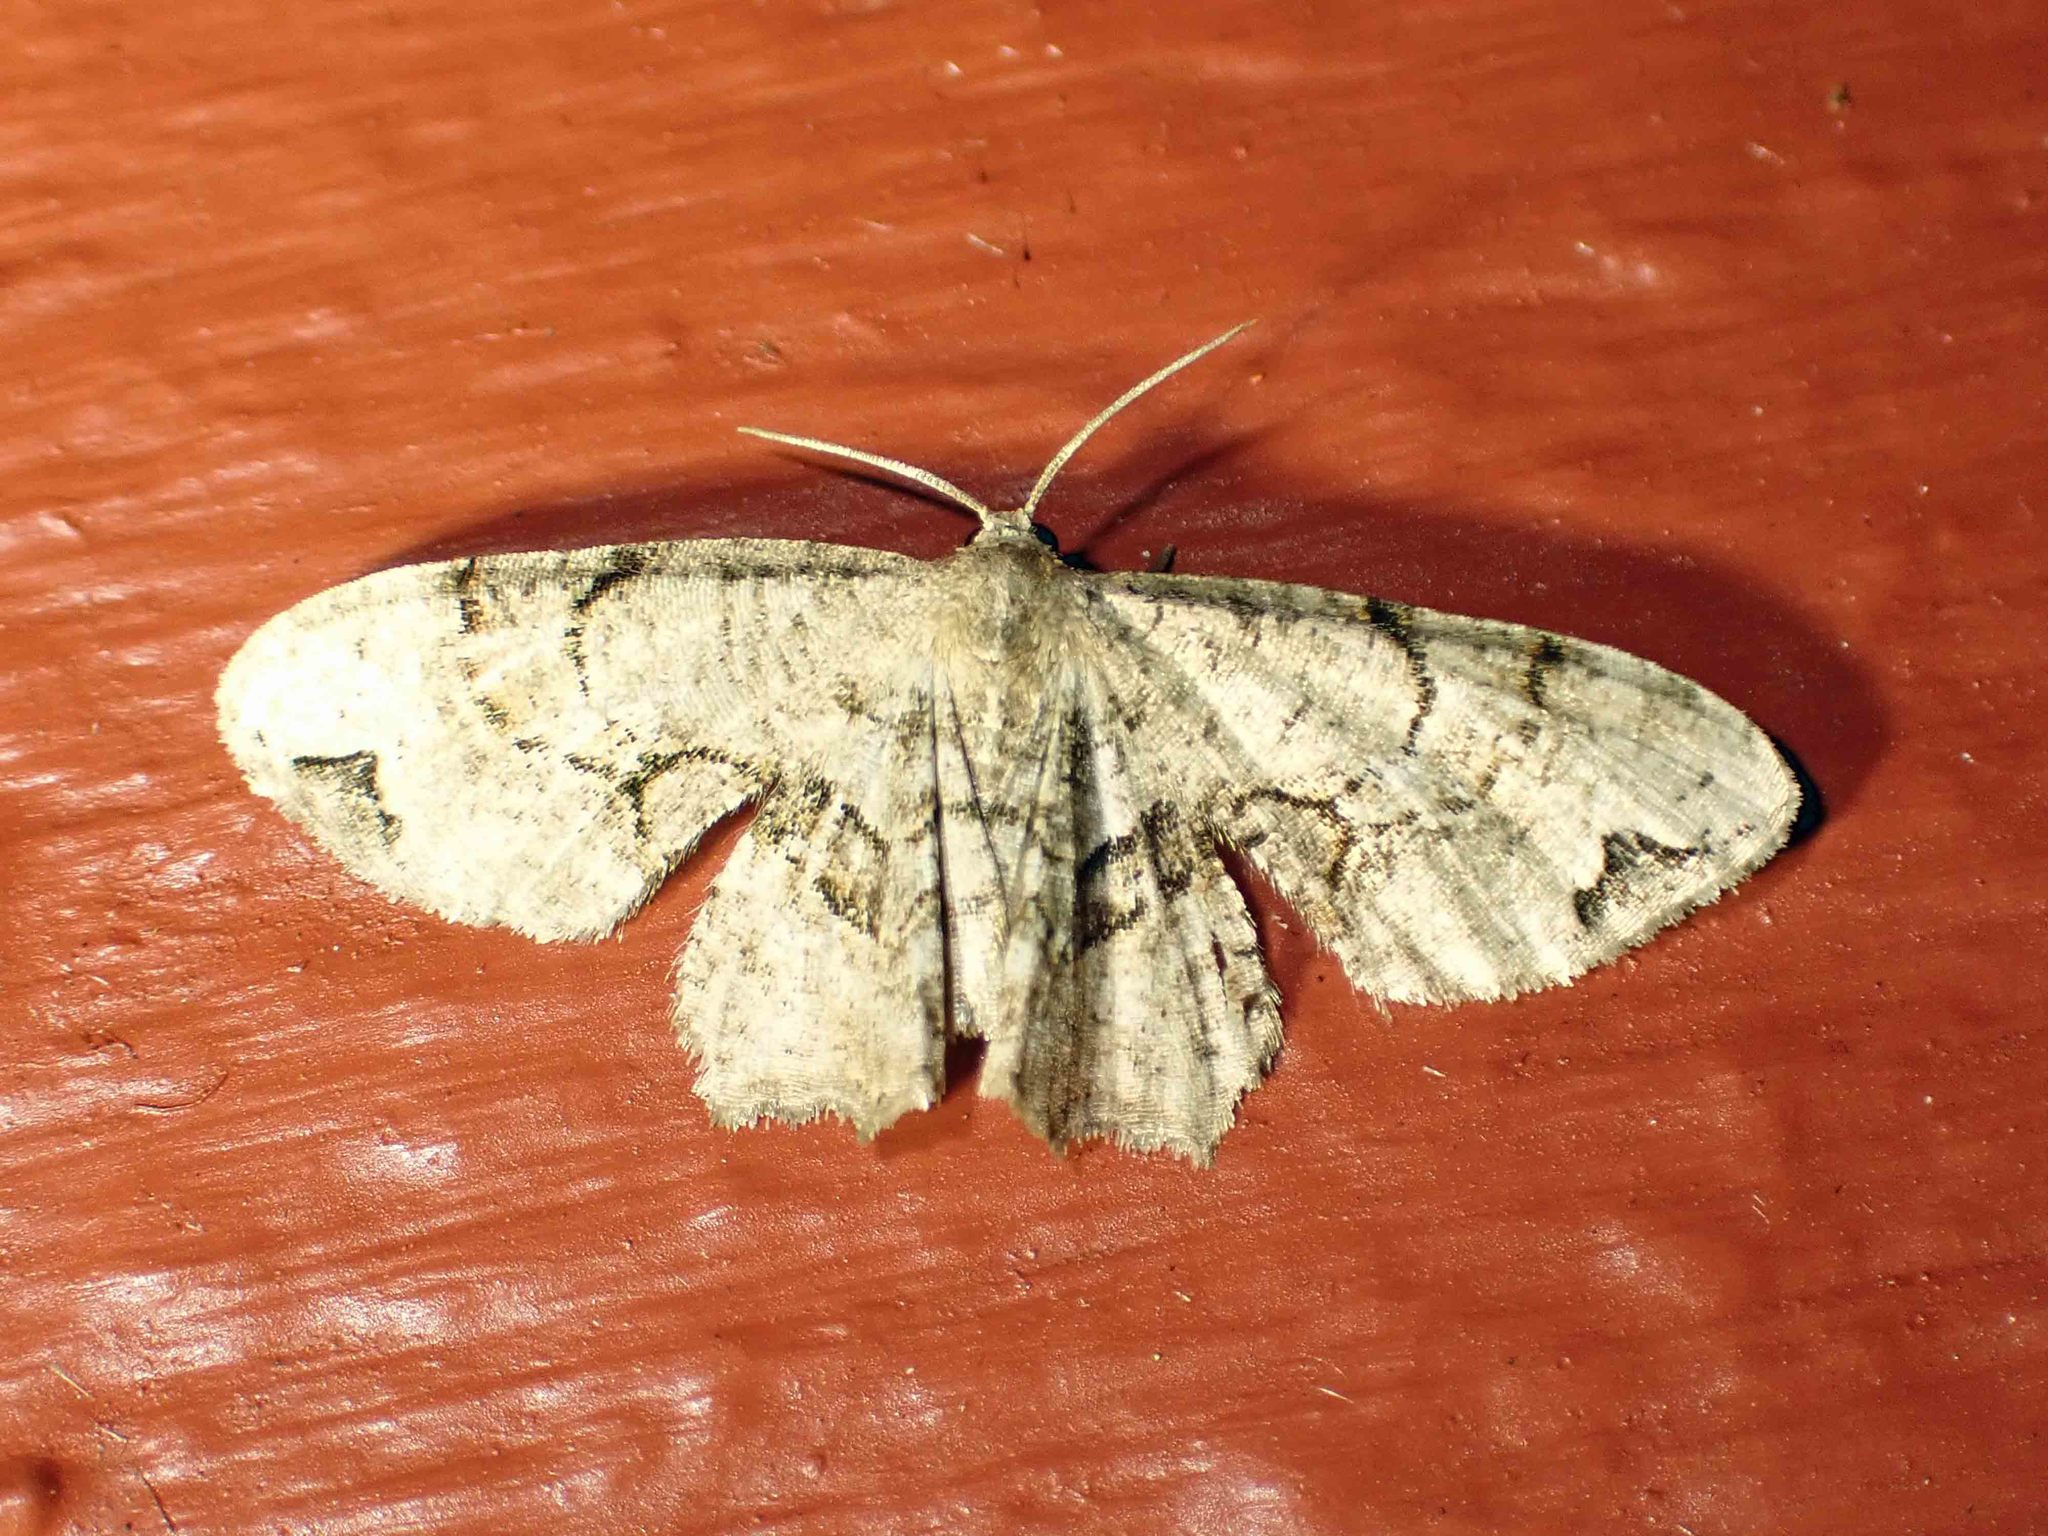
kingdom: Animalia
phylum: Arthropoda
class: Insecta
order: Lepidoptera
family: Uraniidae
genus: Epiplema
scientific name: Epiplema Callizzia amorata
